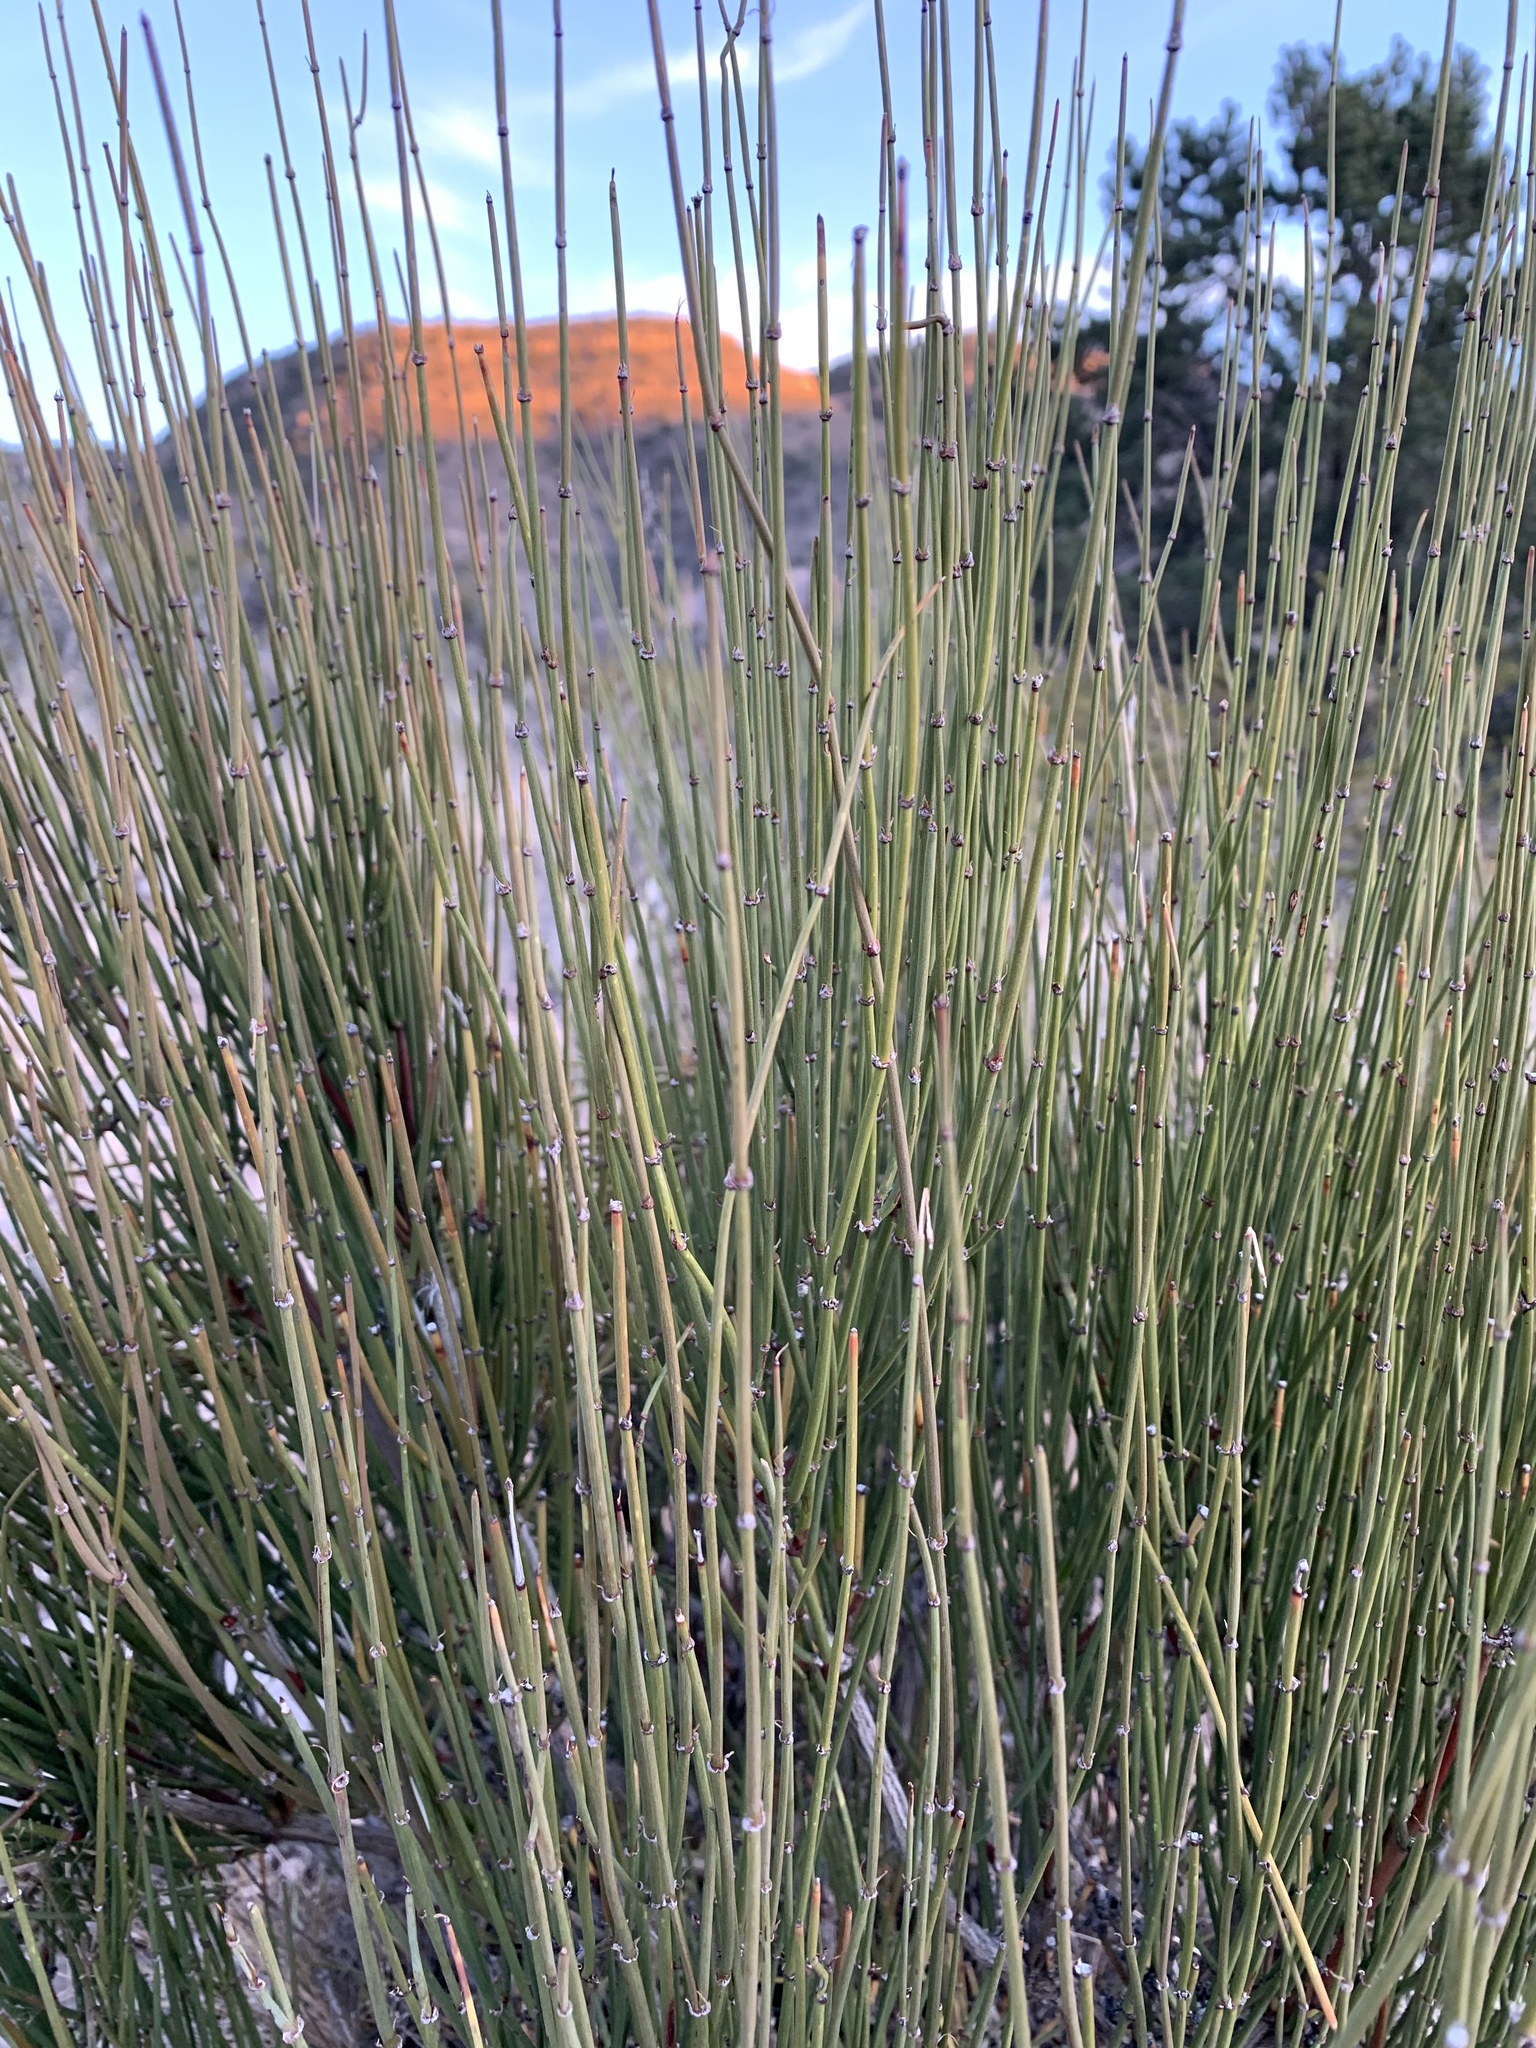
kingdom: Plantae
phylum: Tracheophyta
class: Gnetopsida
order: Ephedrales
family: Ephedraceae
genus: Ephedra
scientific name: Ephedra viridis
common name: Green ephedra
